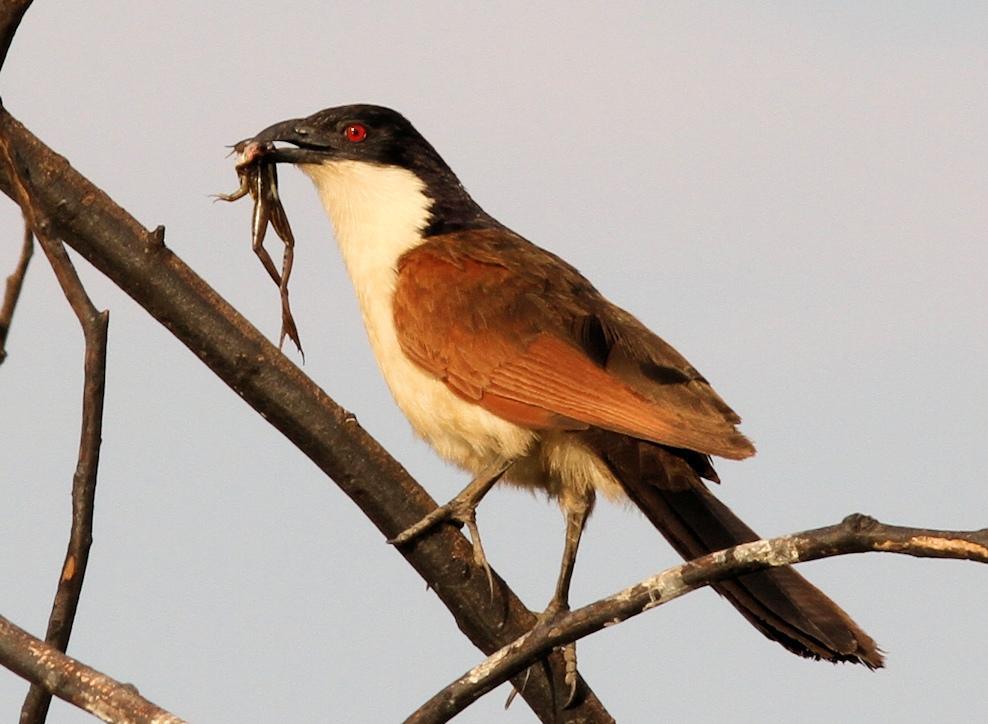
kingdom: Animalia
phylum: Chordata
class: Aves
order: Cuculiformes
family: Cuculidae
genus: Centropus
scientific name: Centropus cupreicaudus
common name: Coppery-tailed coucal
